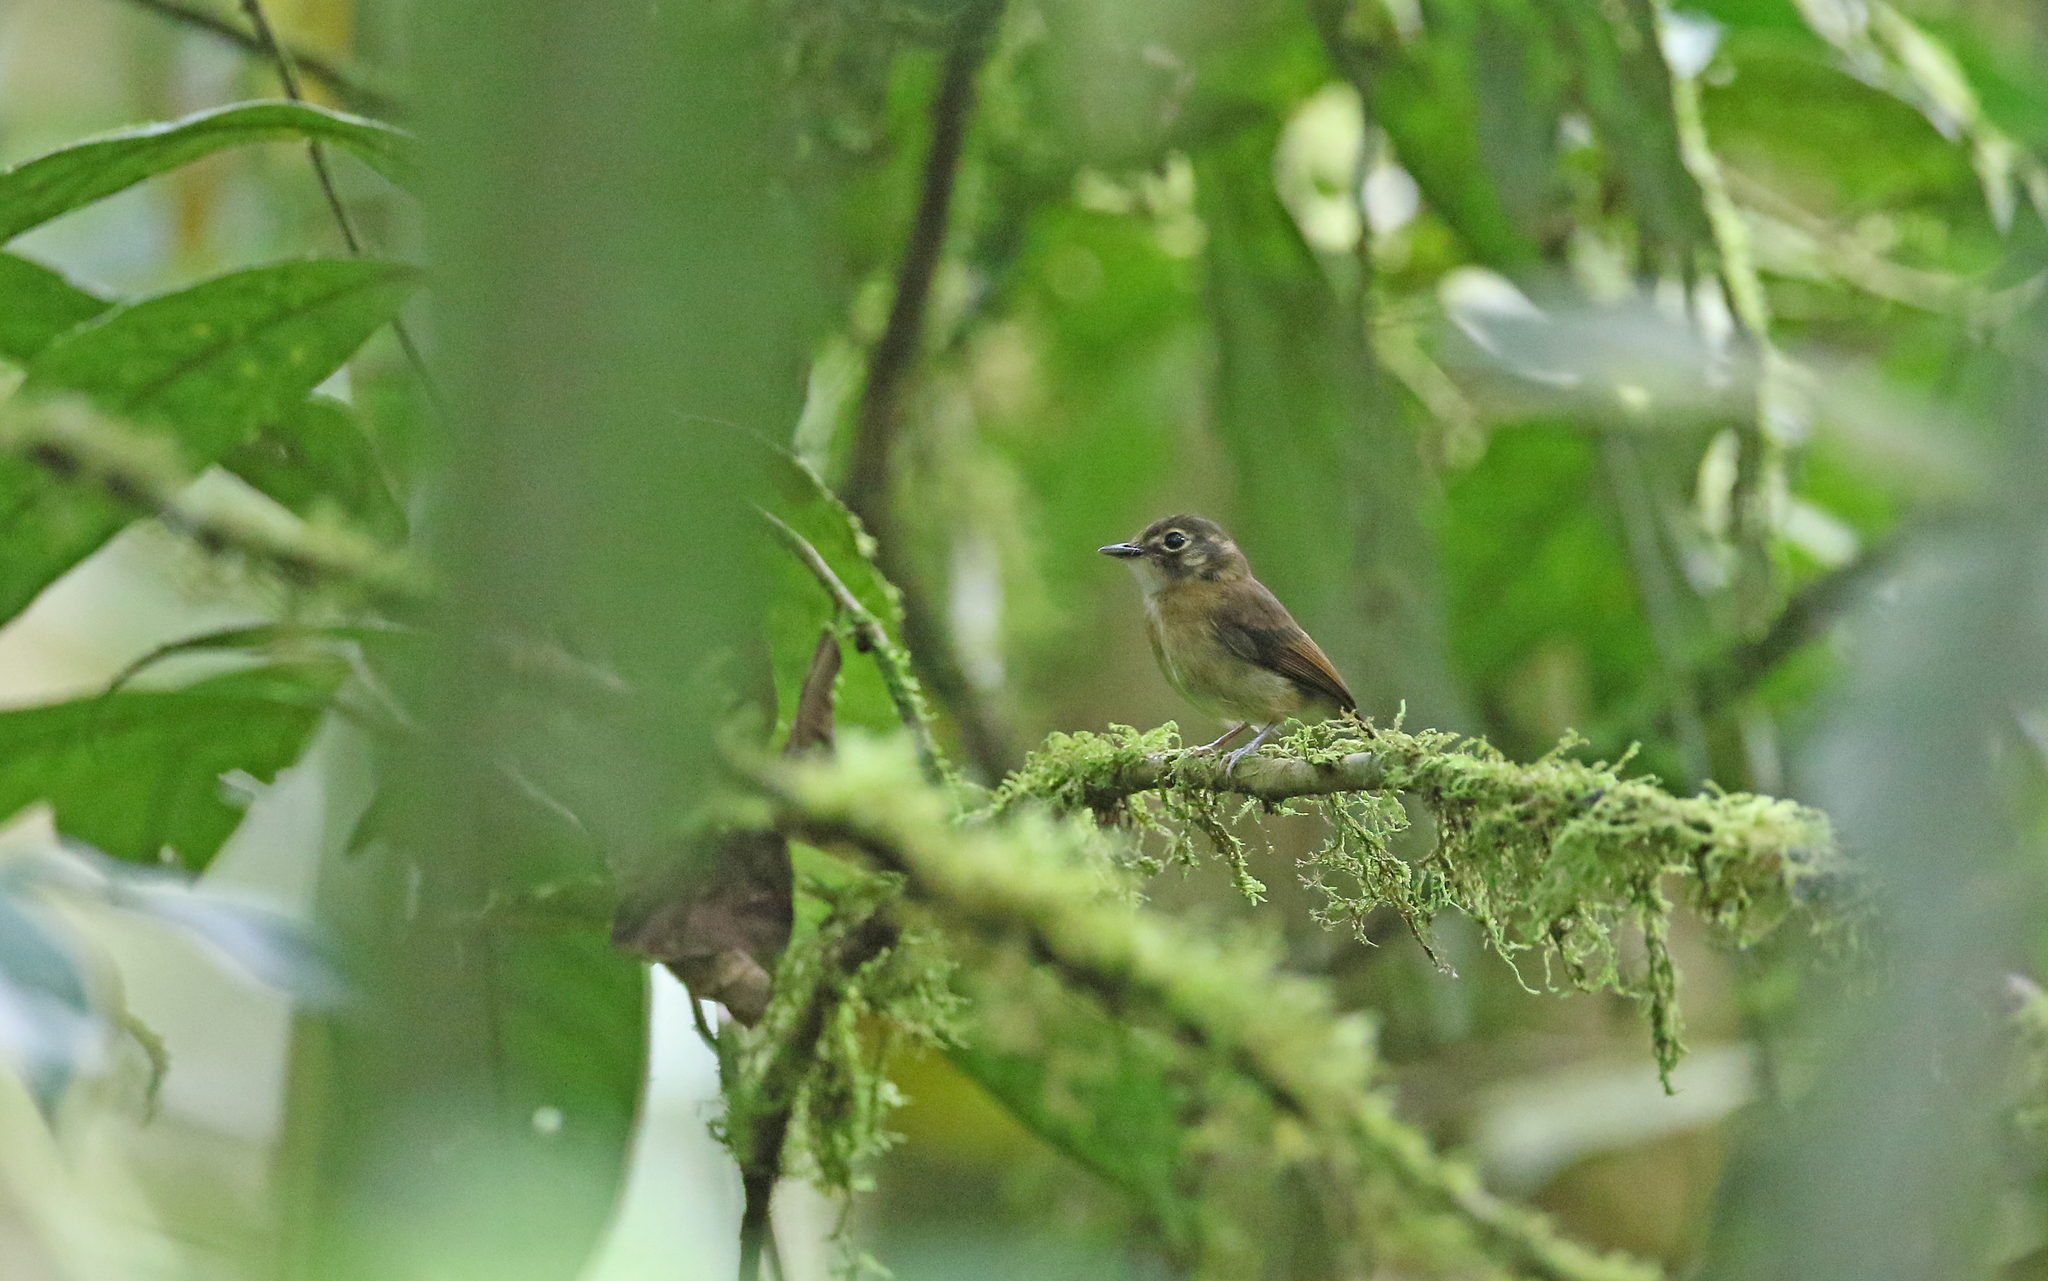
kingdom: Animalia
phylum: Chordata
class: Aves
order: Passeriformes
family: Tyrannidae
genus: Platyrinchus
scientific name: Platyrinchus mystaceus
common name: White-throated spadebill
